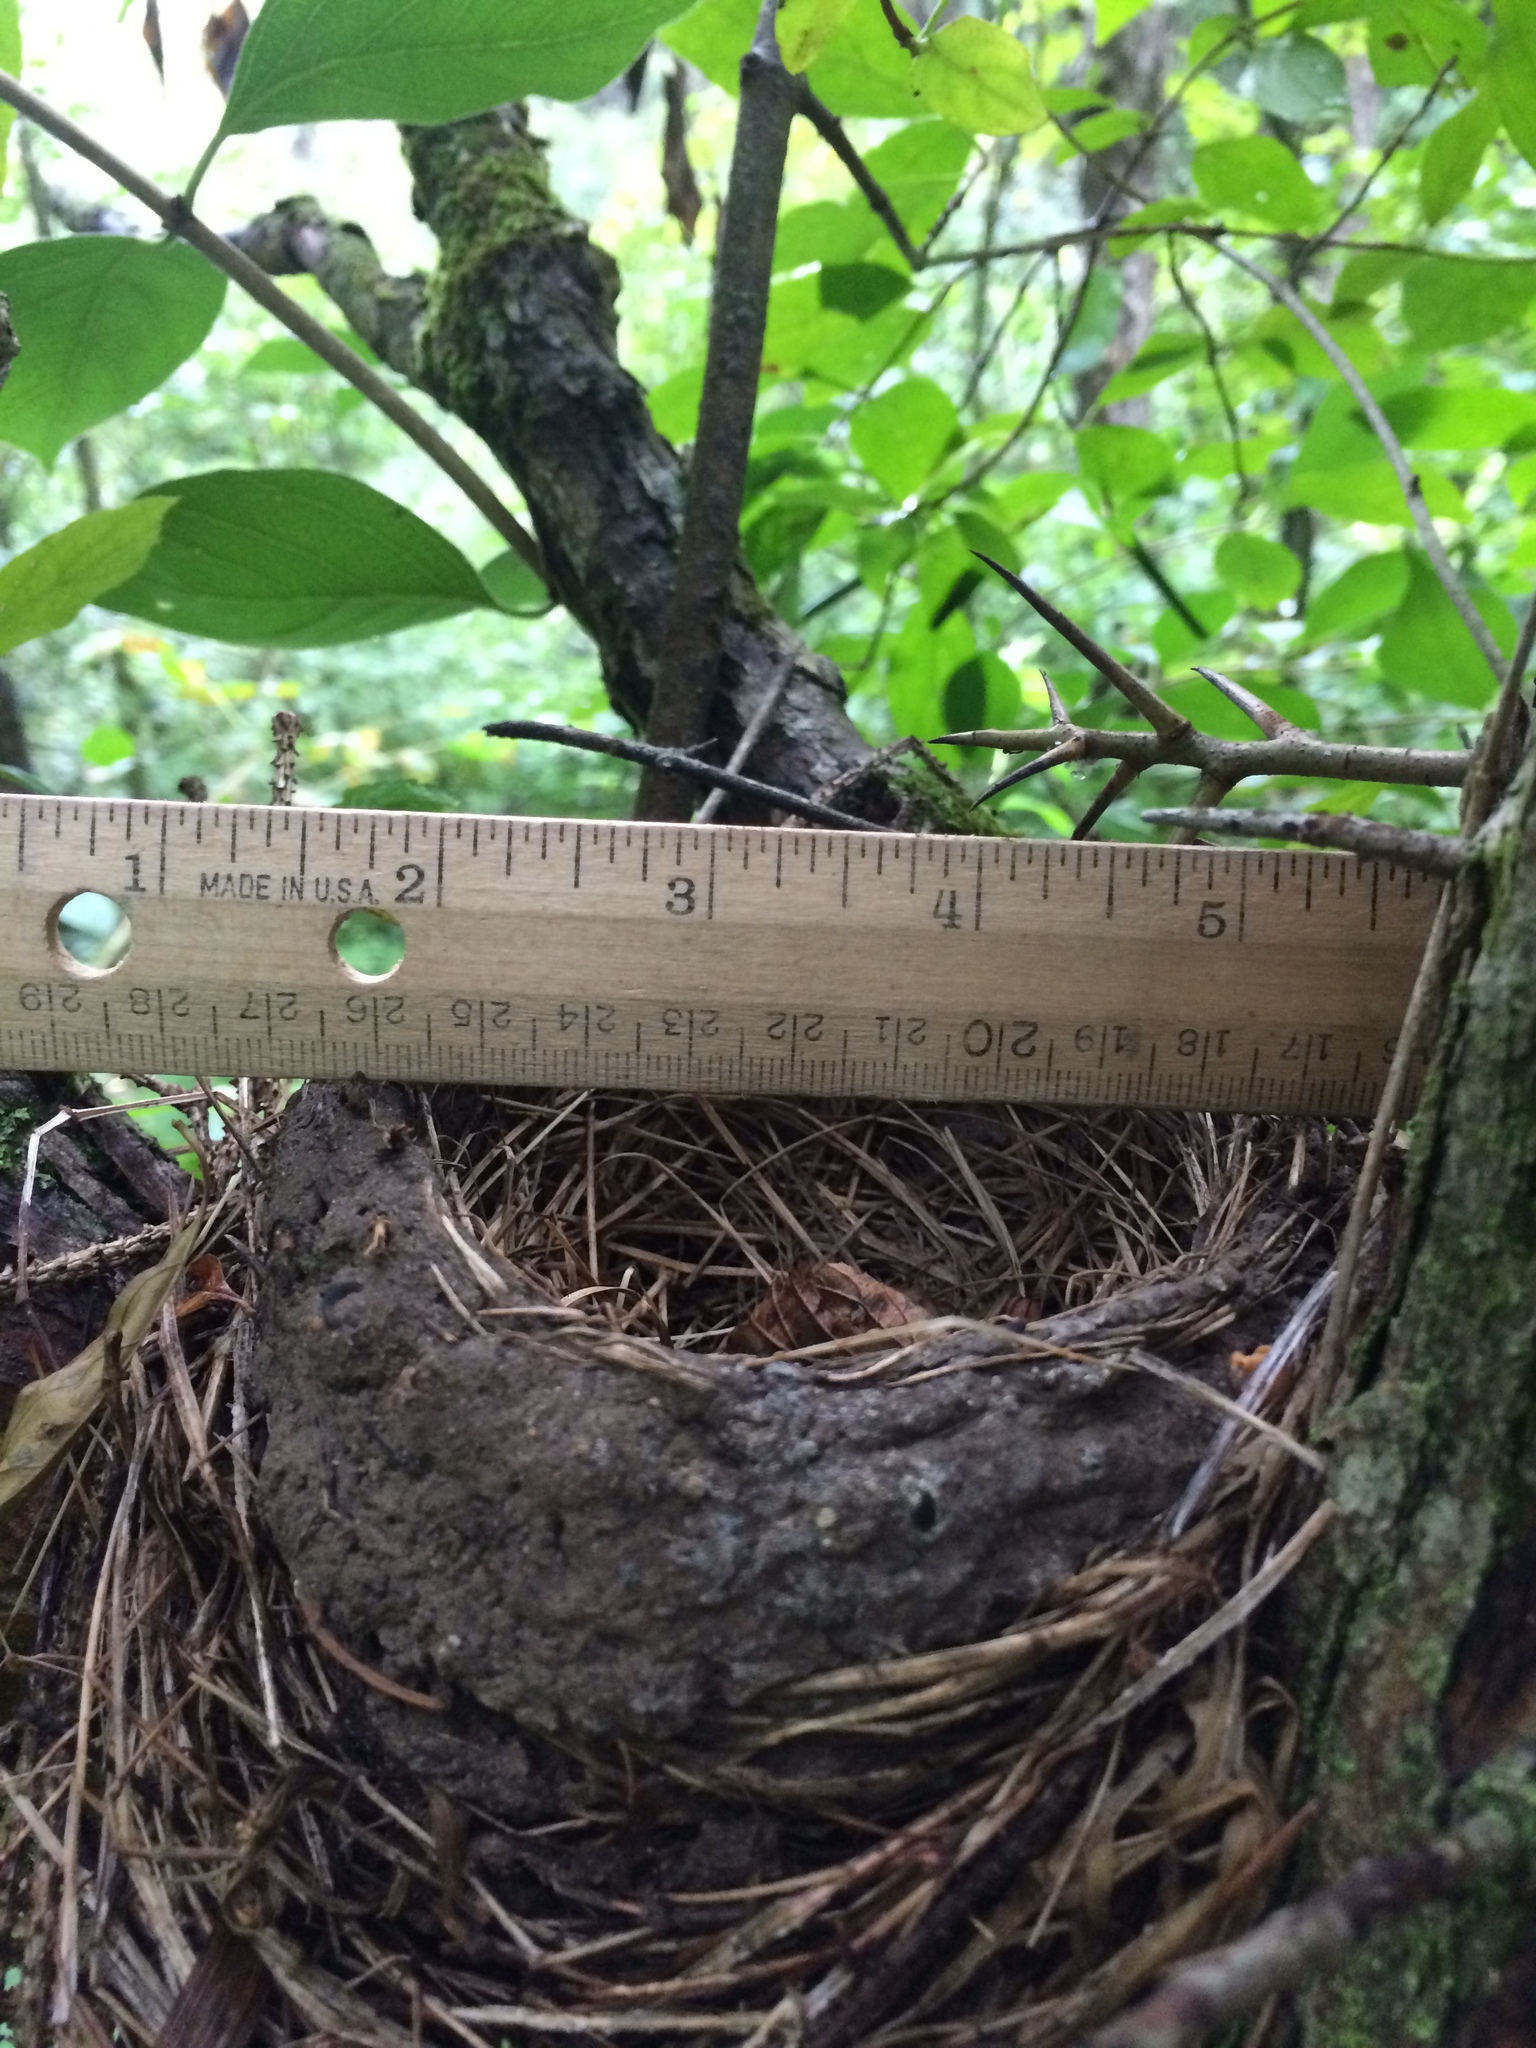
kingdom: Animalia
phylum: Chordata
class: Aves
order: Passeriformes
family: Turdidae
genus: Turdus
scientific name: Turdus migratorius
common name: American robin
